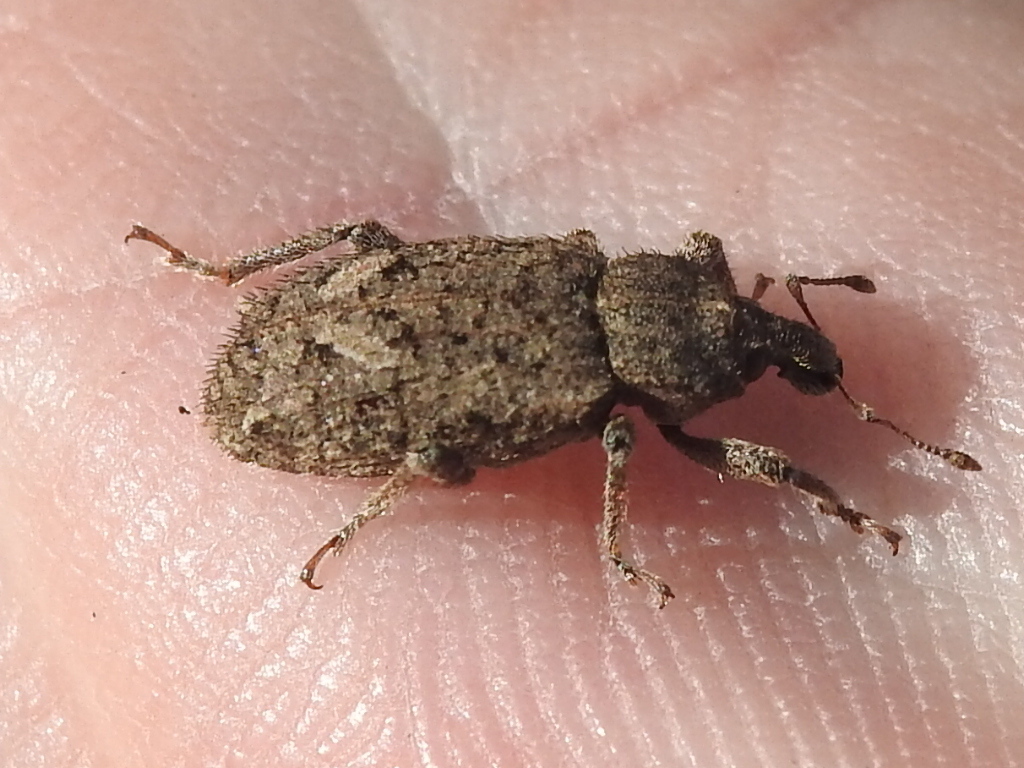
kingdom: Animalia
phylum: Arthropoda
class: Insecta
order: Coleoptera
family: Curculionidae
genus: Listroderes
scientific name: Listroderes costirostris
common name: Weevil
